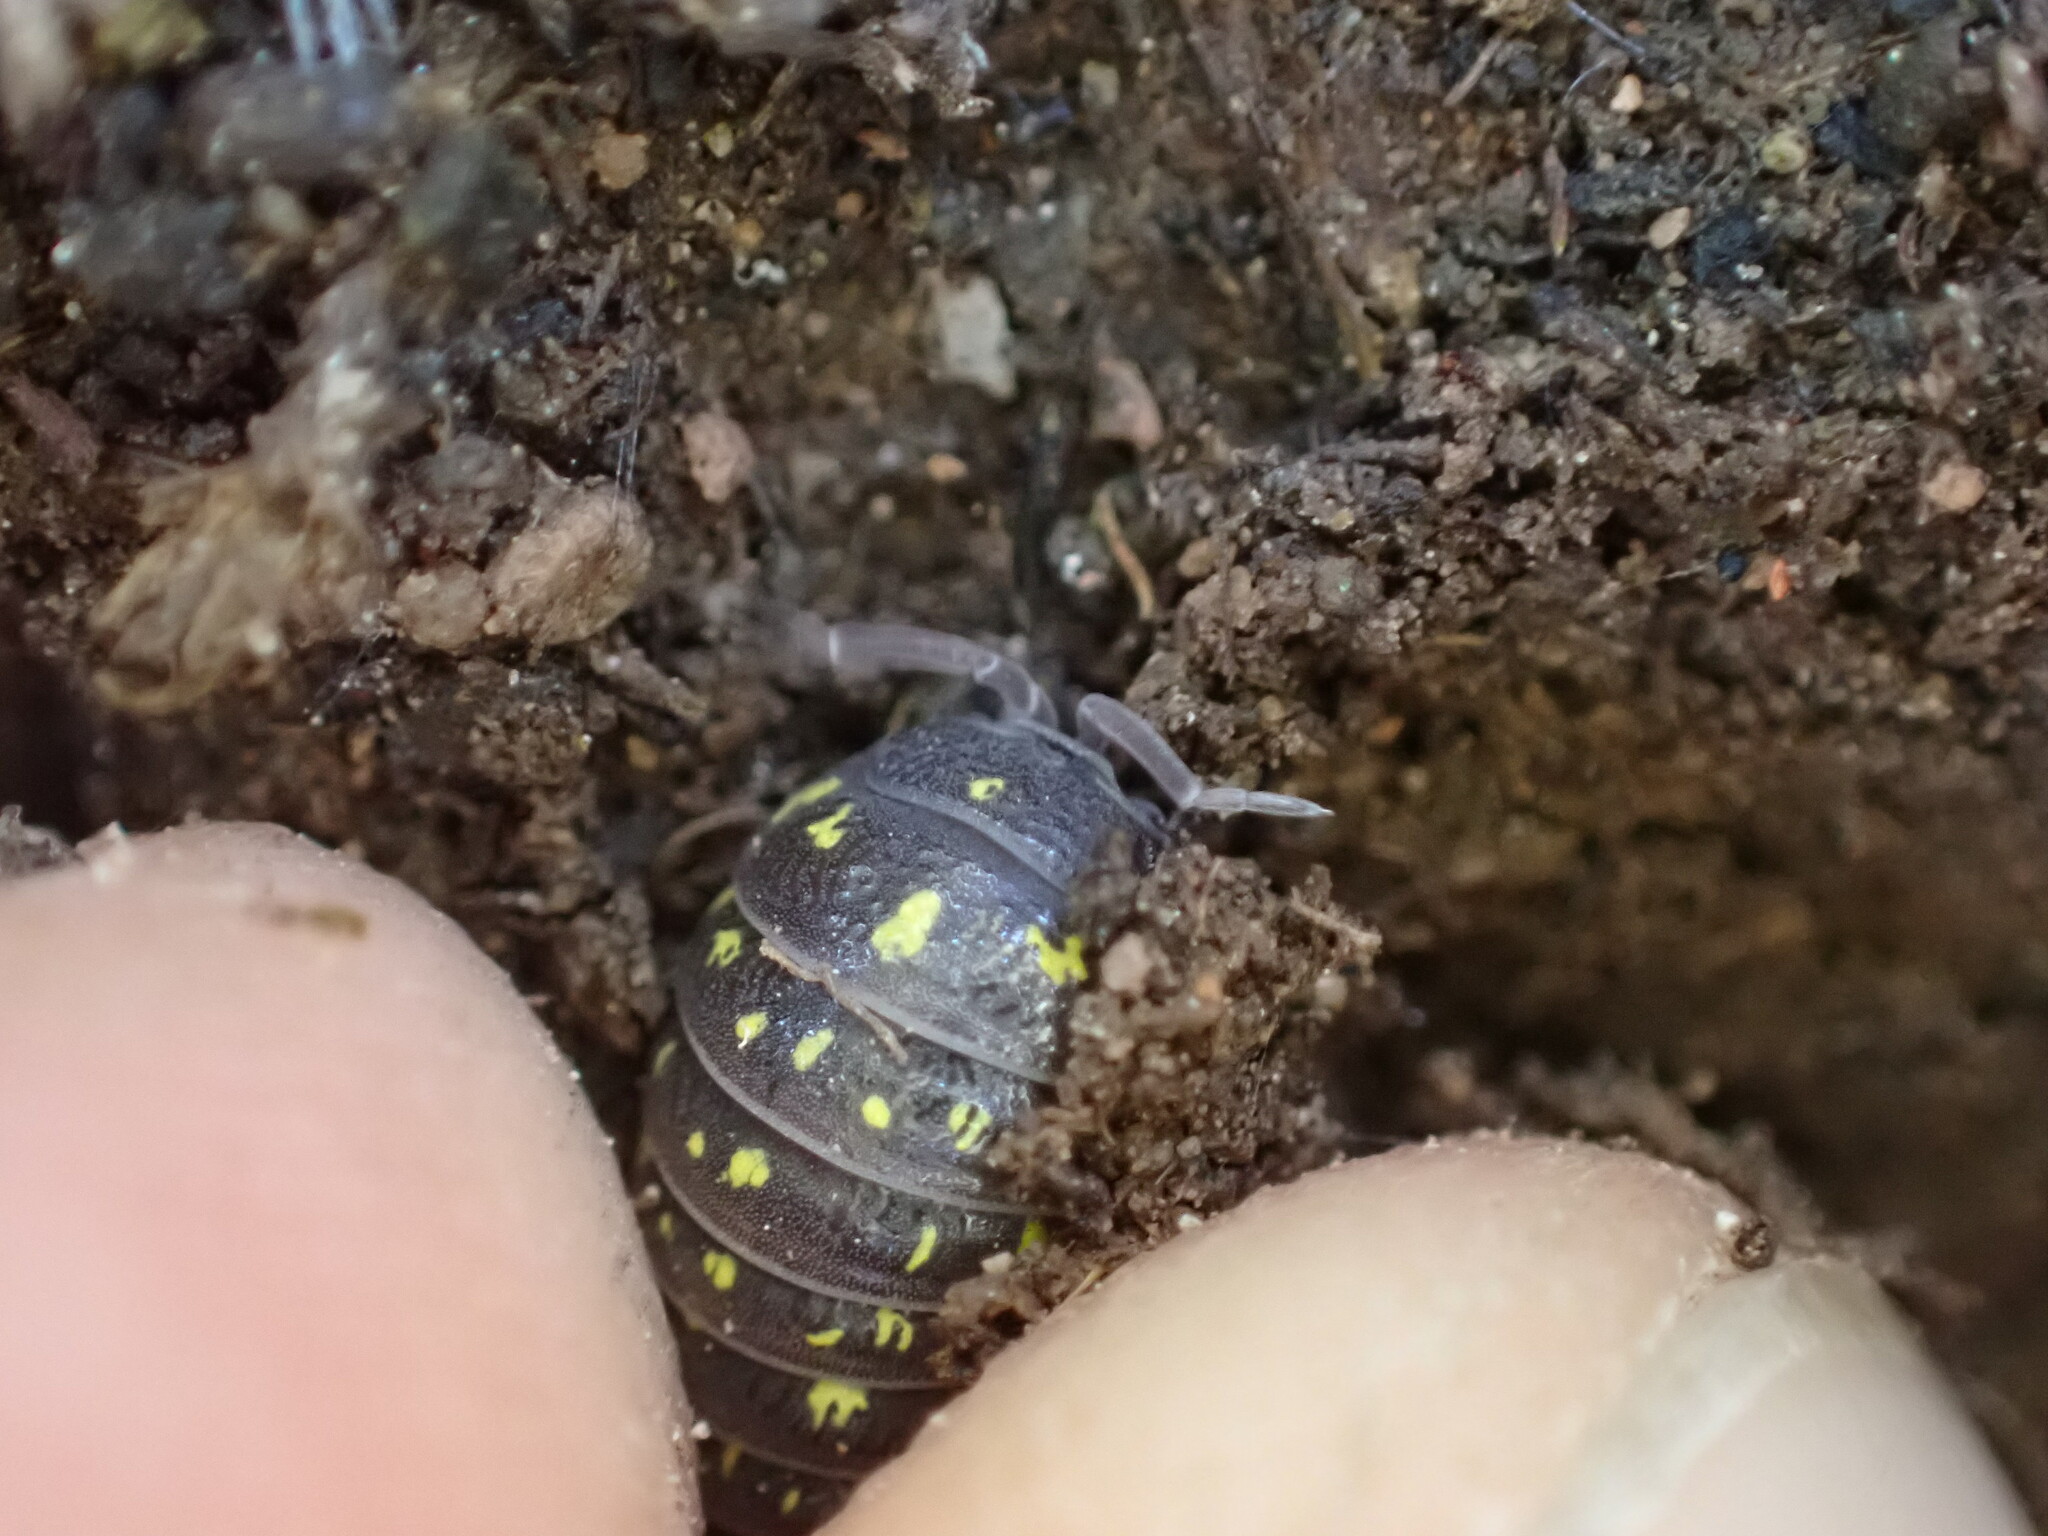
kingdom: Animalia
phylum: Arthropoda
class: Malacostraca
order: Isopoda
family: Armadillidiidae
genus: Armadillidium
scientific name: Armadillidium quinquepustulatum
